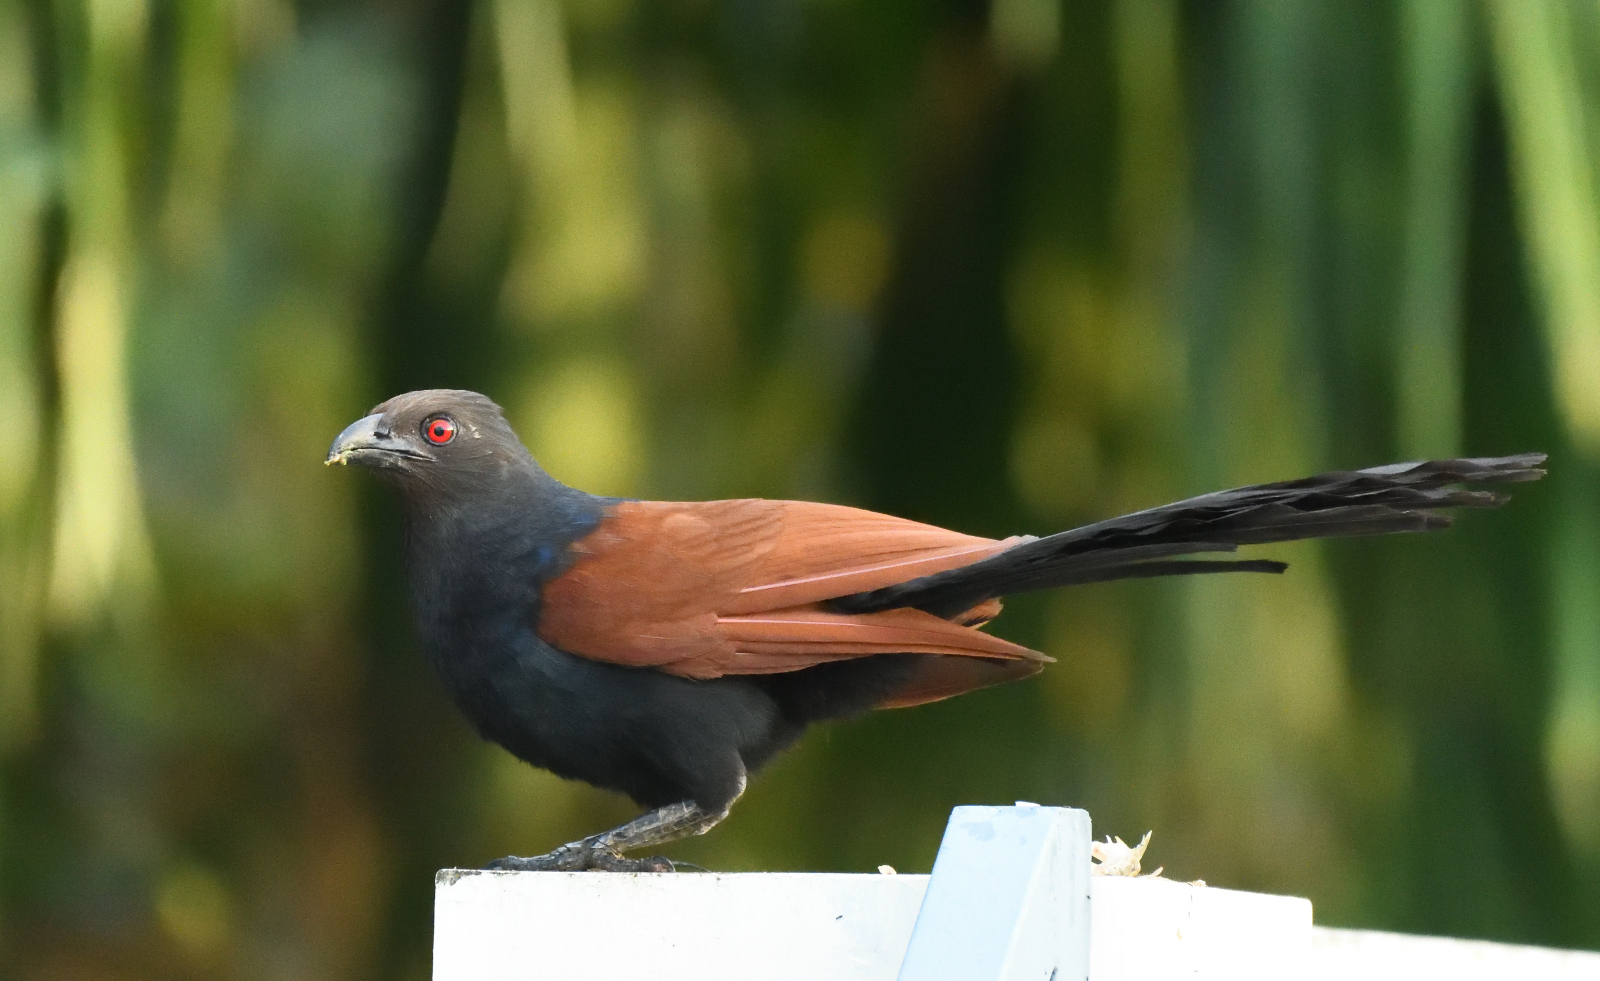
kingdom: Animalia
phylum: Chordata
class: Aves
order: Cuculiformes
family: Cuculidae
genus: Centropus
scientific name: Centropus sinensis
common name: Greater coucal
